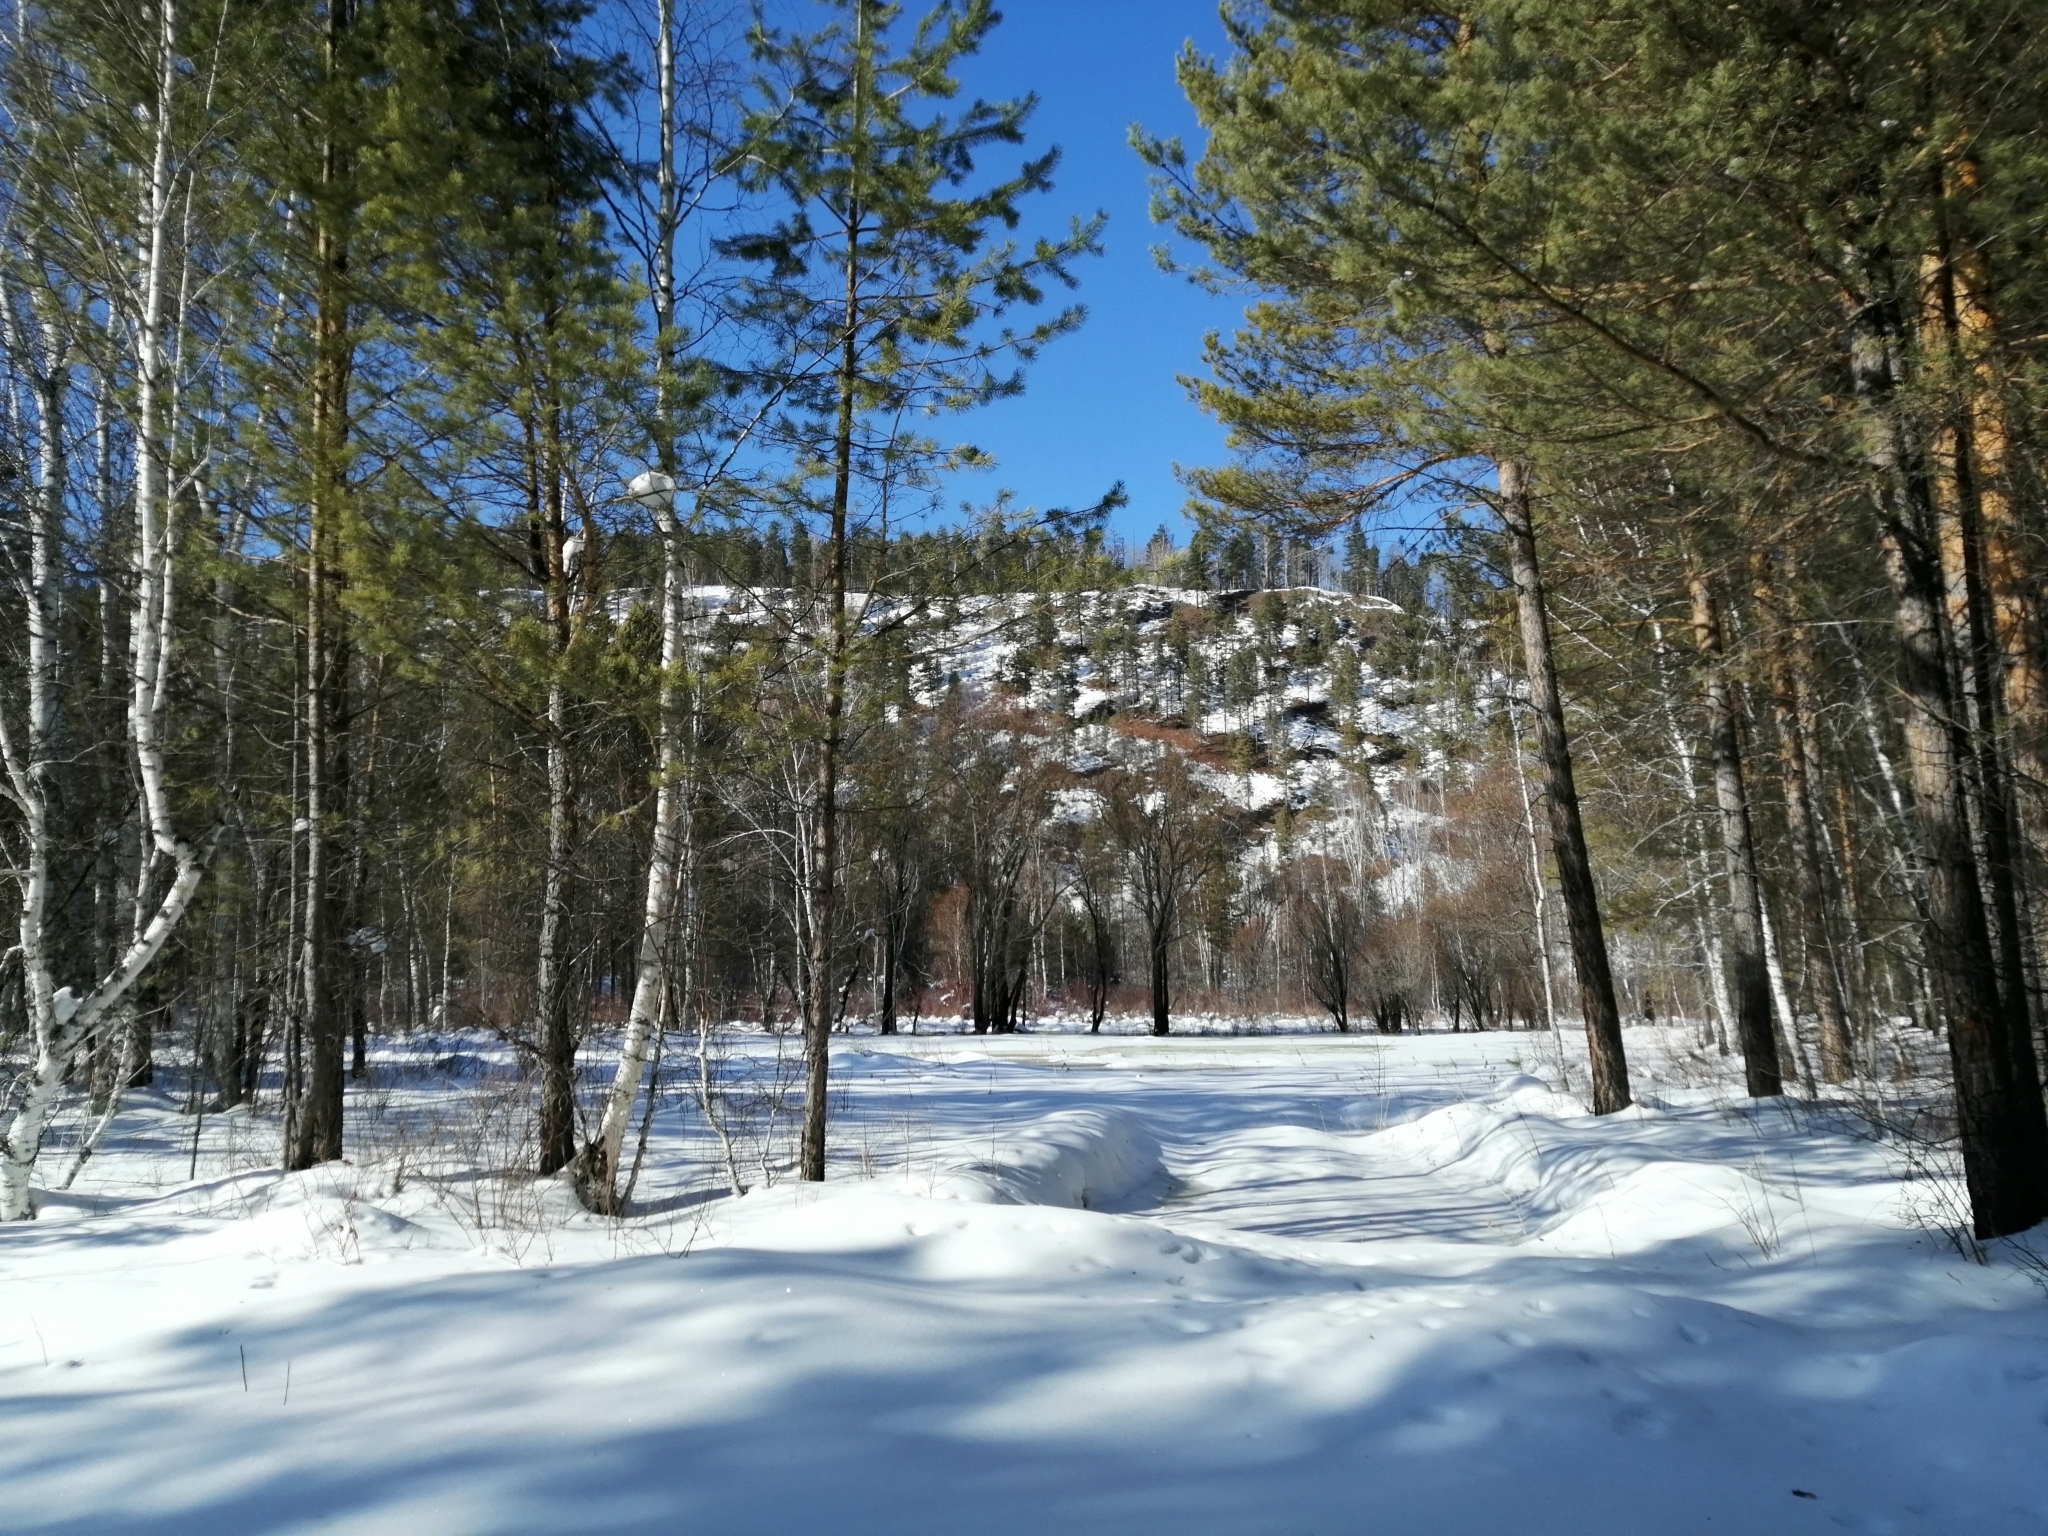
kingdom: Plantae
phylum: Tracheophyta
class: Pinopsida
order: Pinales
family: Pinaceae
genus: Pinus
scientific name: Pinus sylvestris
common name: Scots pine
